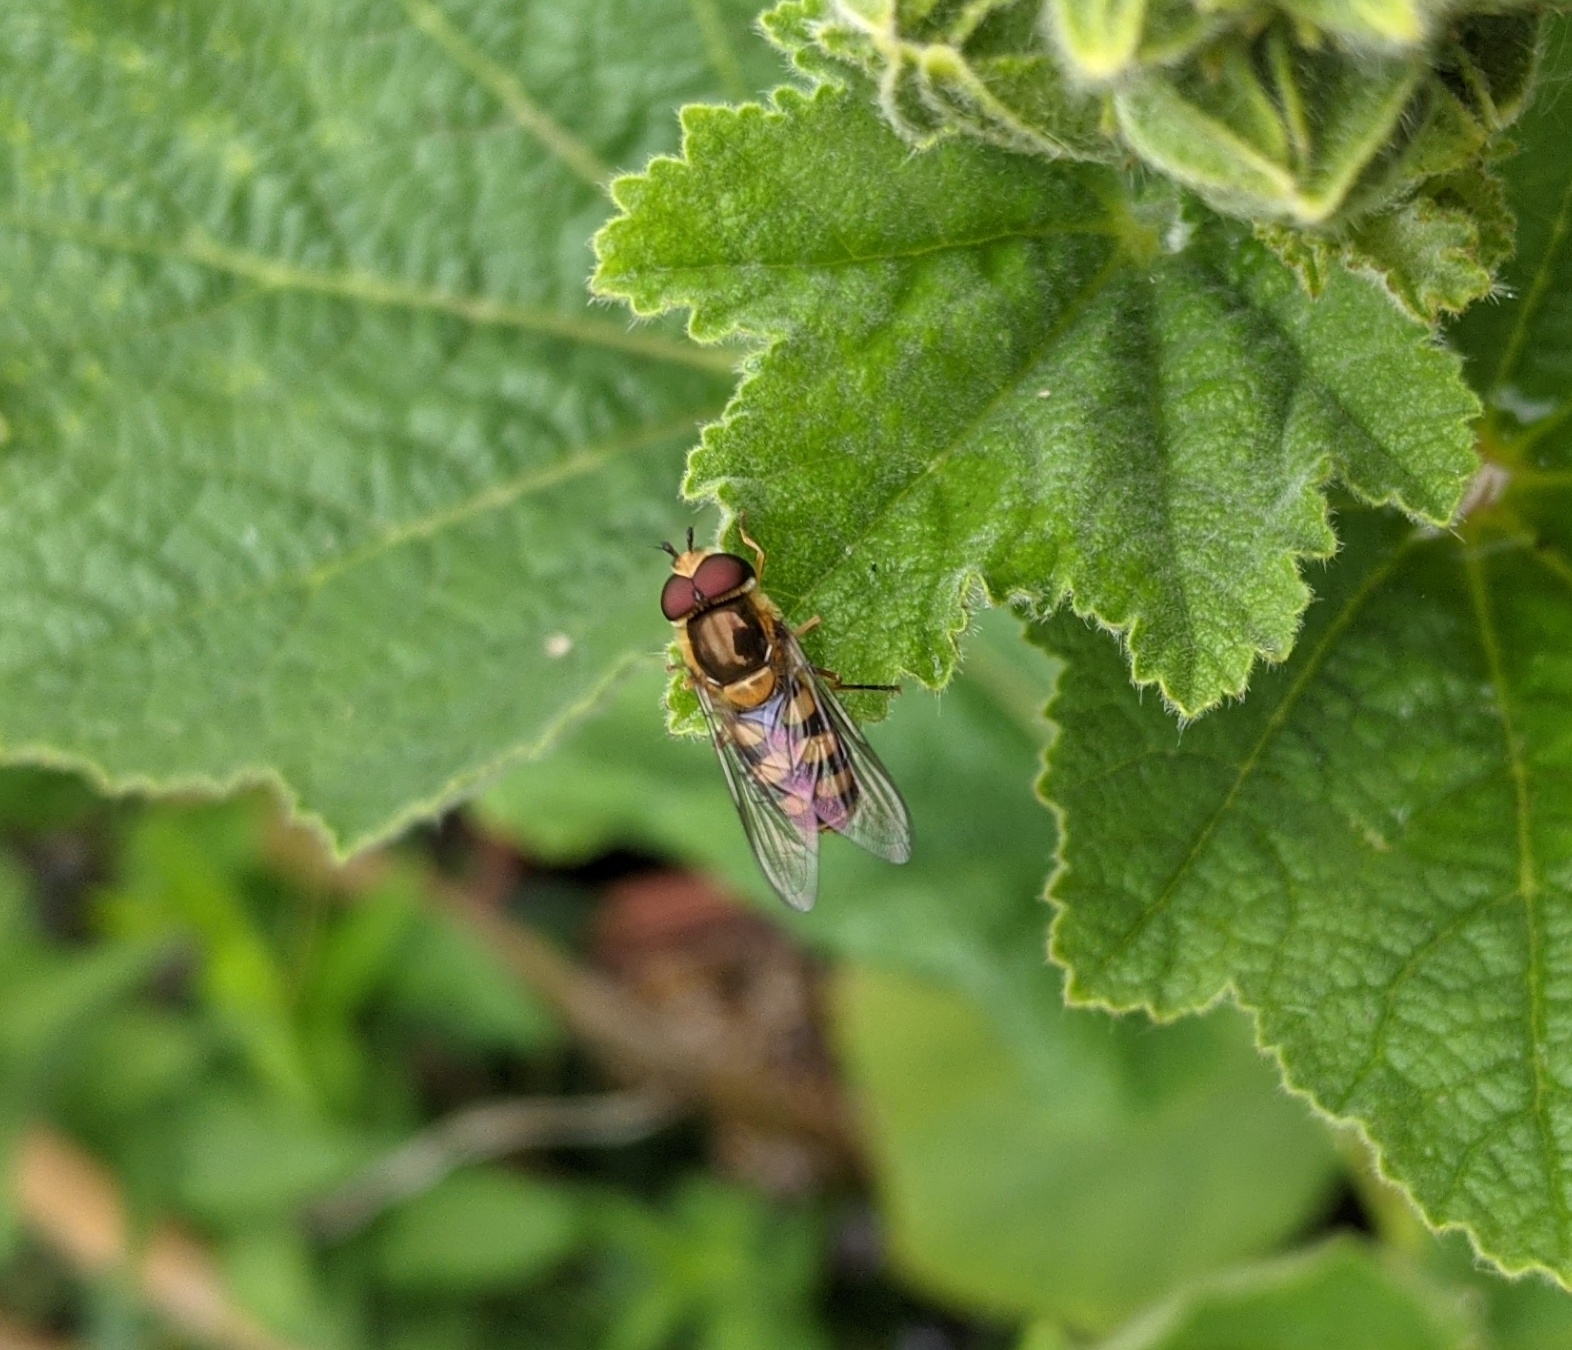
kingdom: Animalia
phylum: Arthropoda
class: Insecta
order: Diptera
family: Syrphidae
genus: Eupeodes
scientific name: Eupeodes
